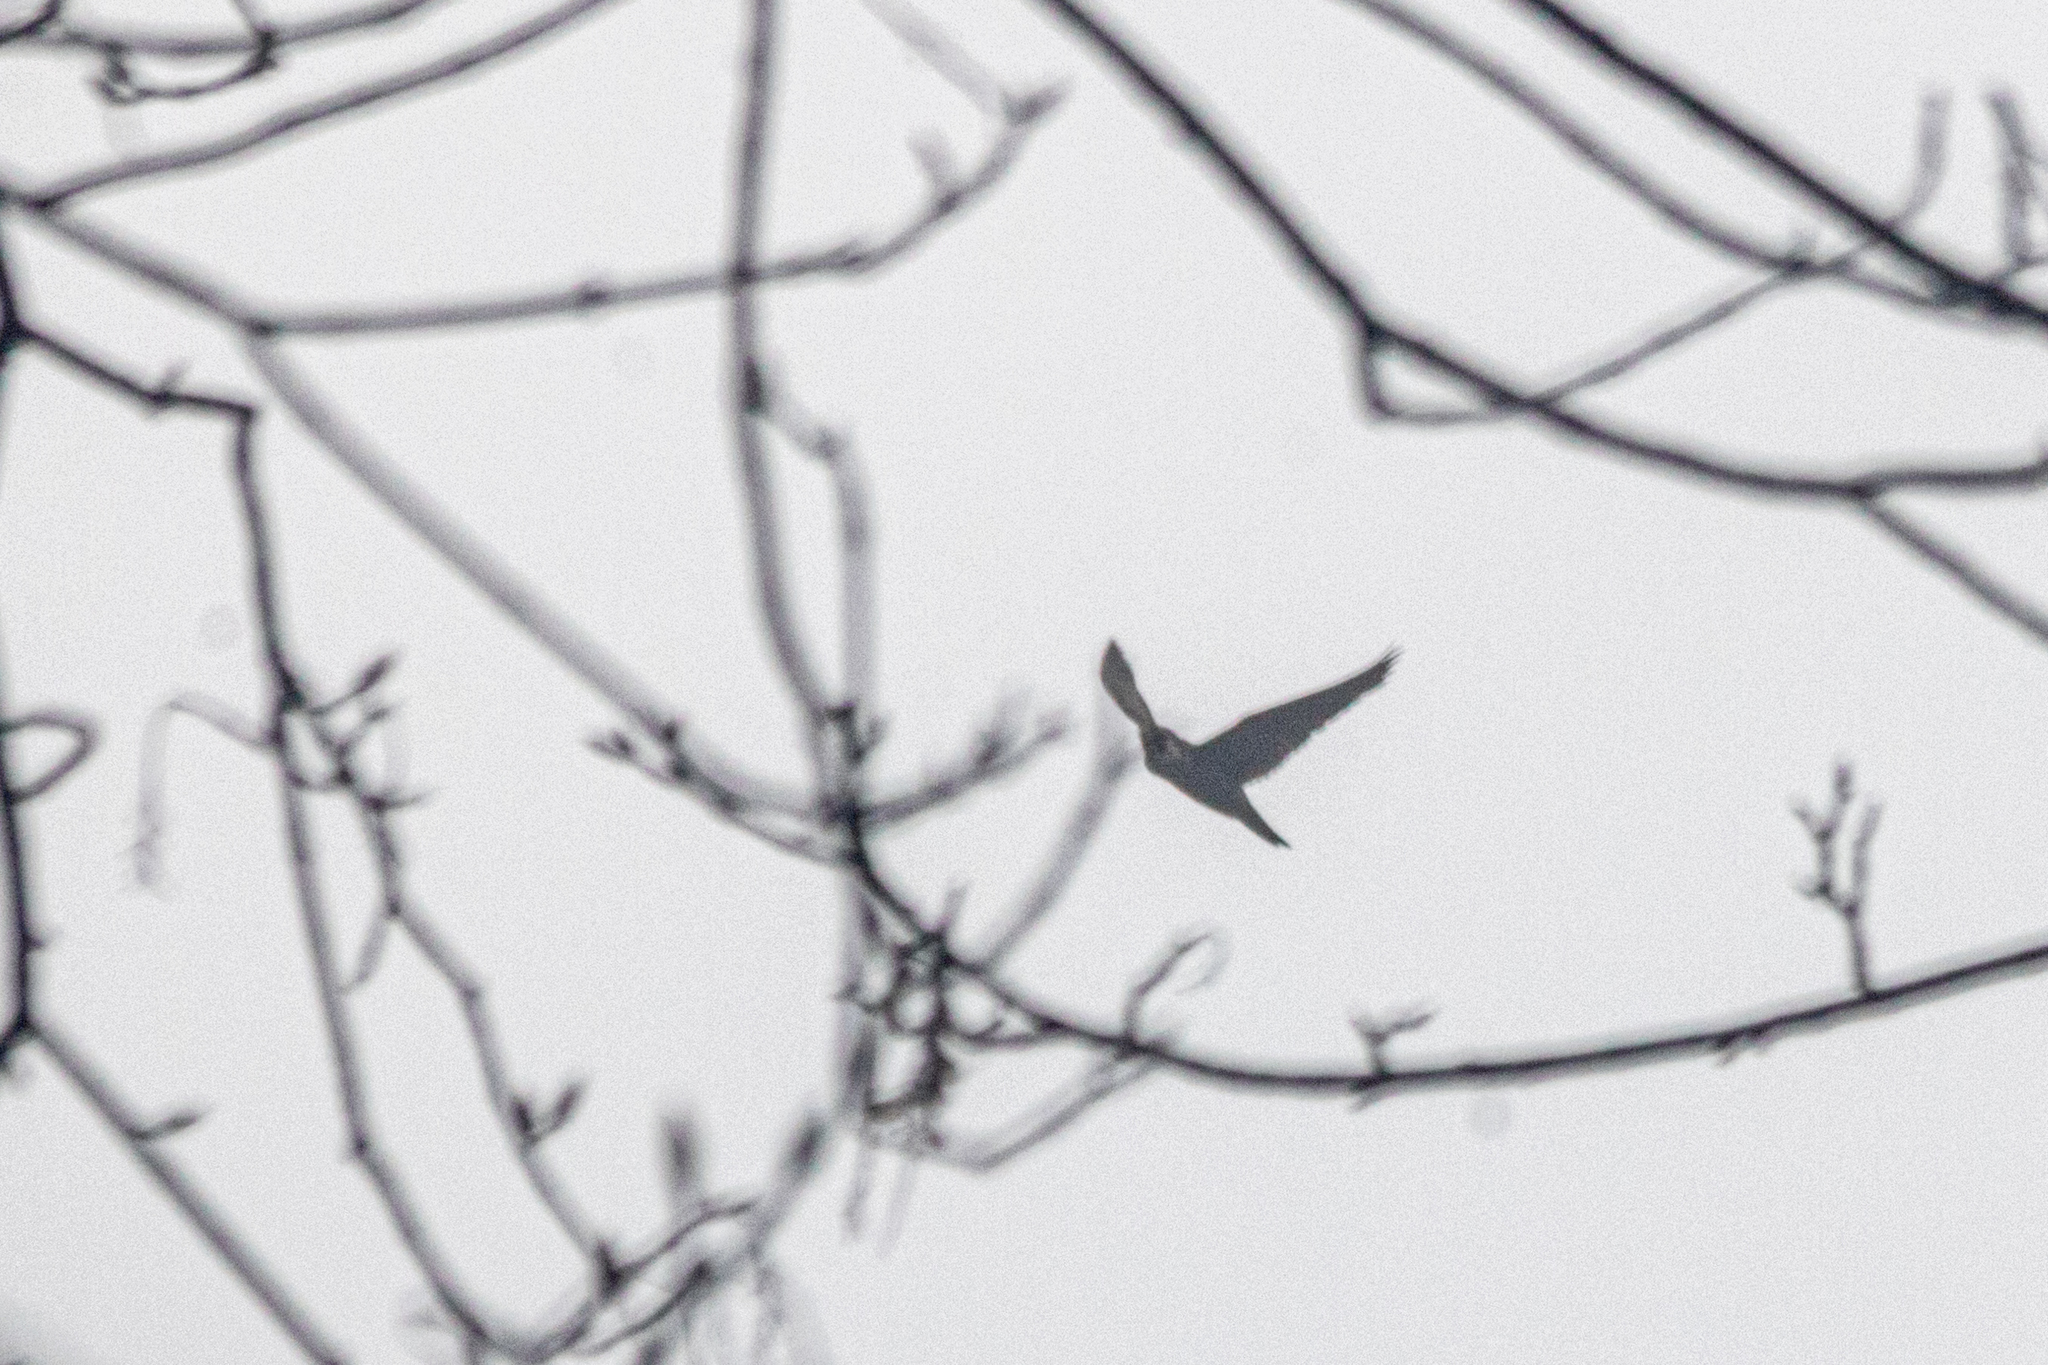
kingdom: Animalia
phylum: Chordata
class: Aves
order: Falconiformes
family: Falconidae
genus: Falco
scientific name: Falco peregrinus
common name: Peregrine falcon
